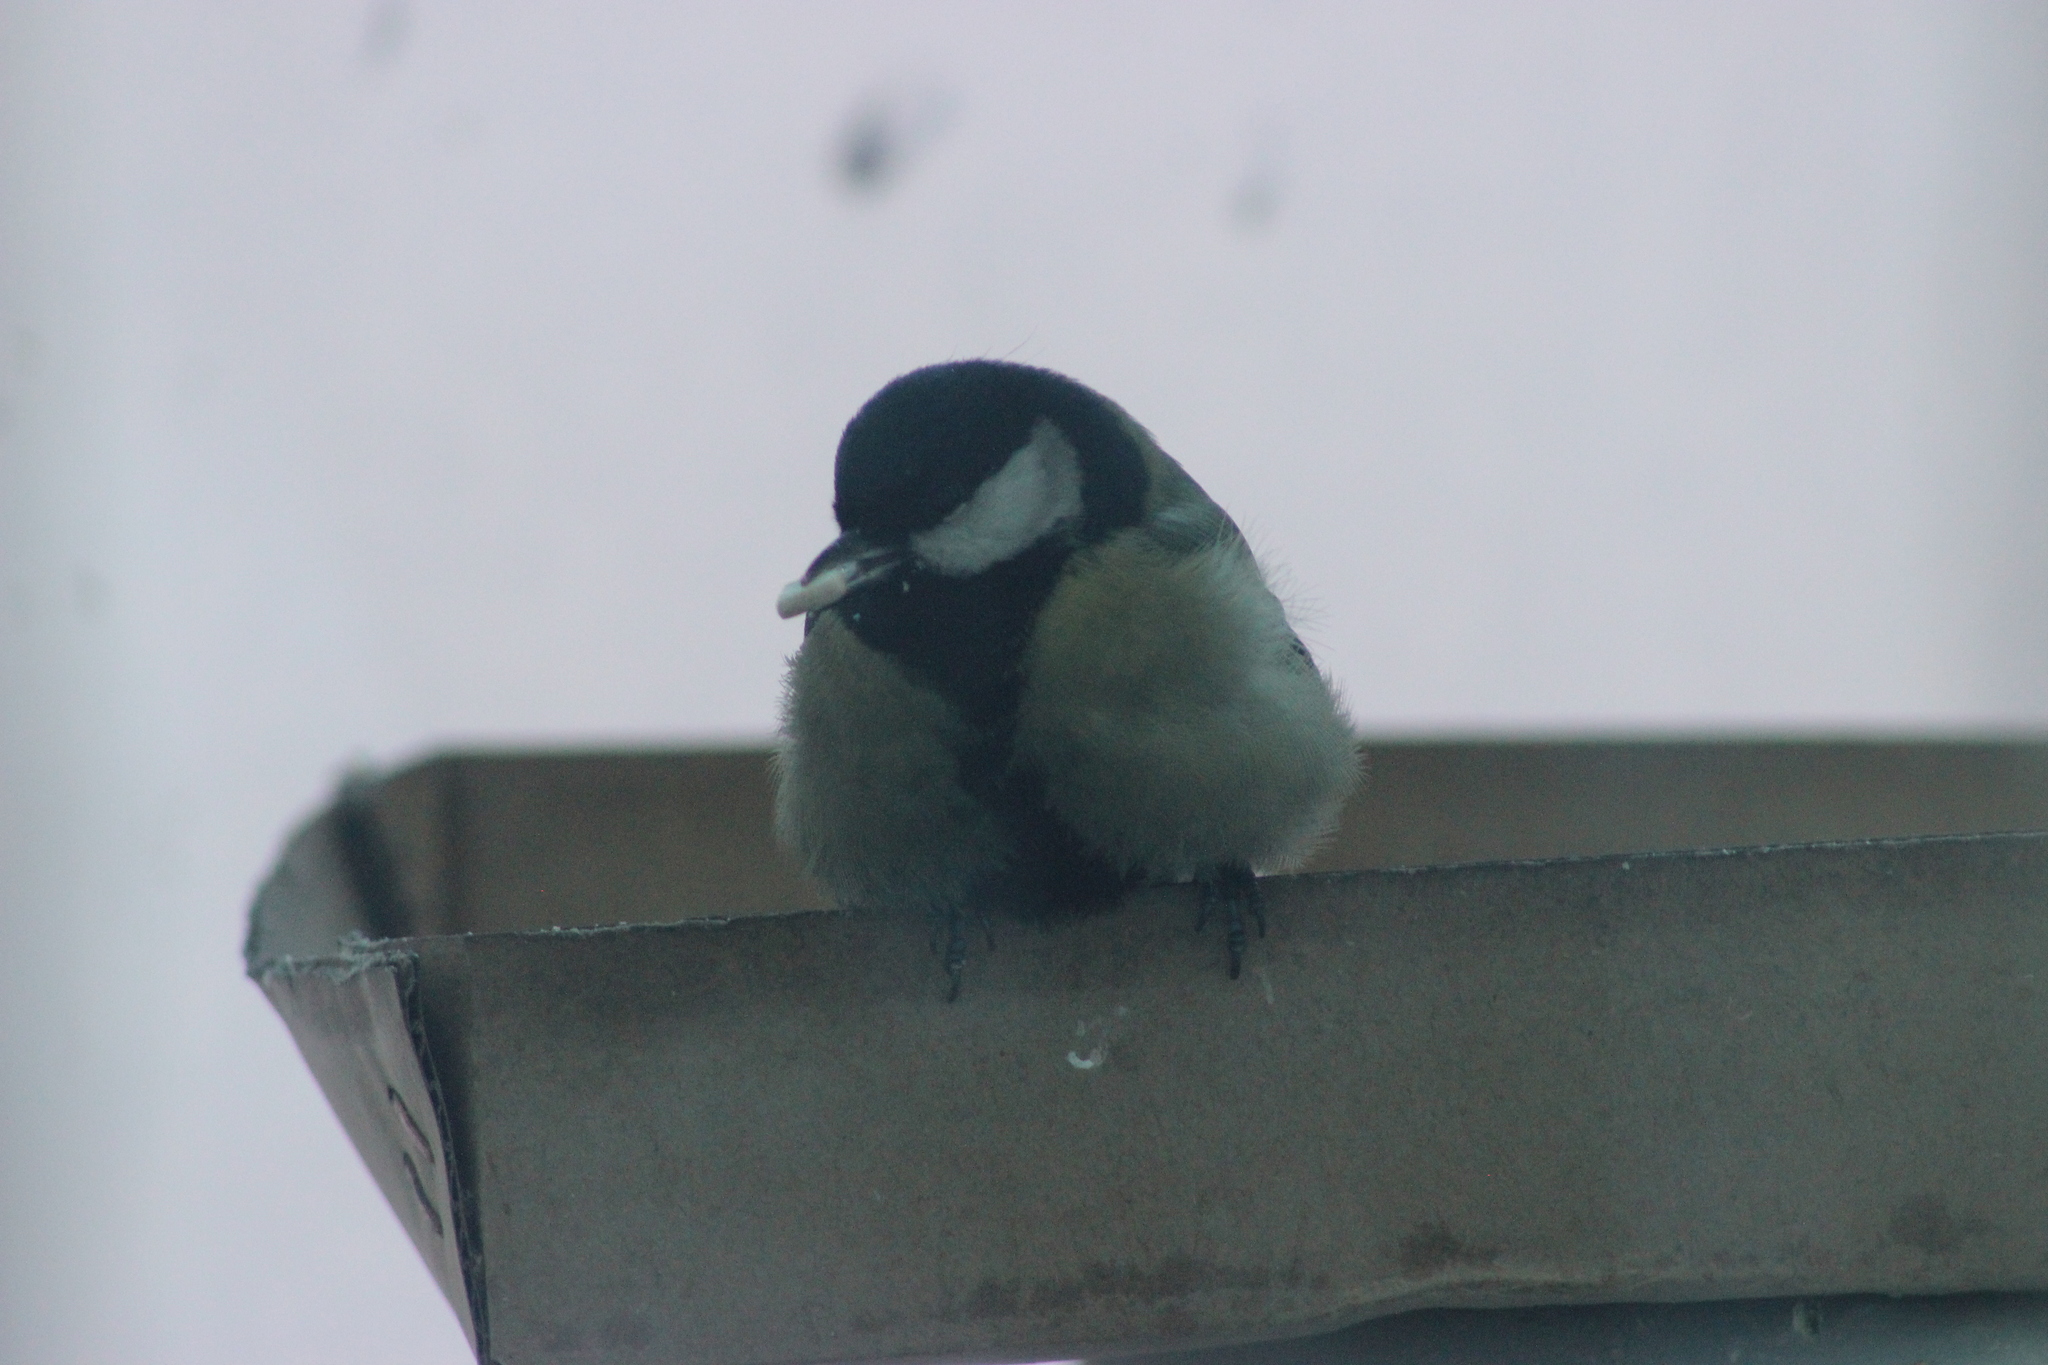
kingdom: Animalia
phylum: Chordata
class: Aves
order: Passeriformes
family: Paridae
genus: Parus
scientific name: Parus major
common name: Great tit
